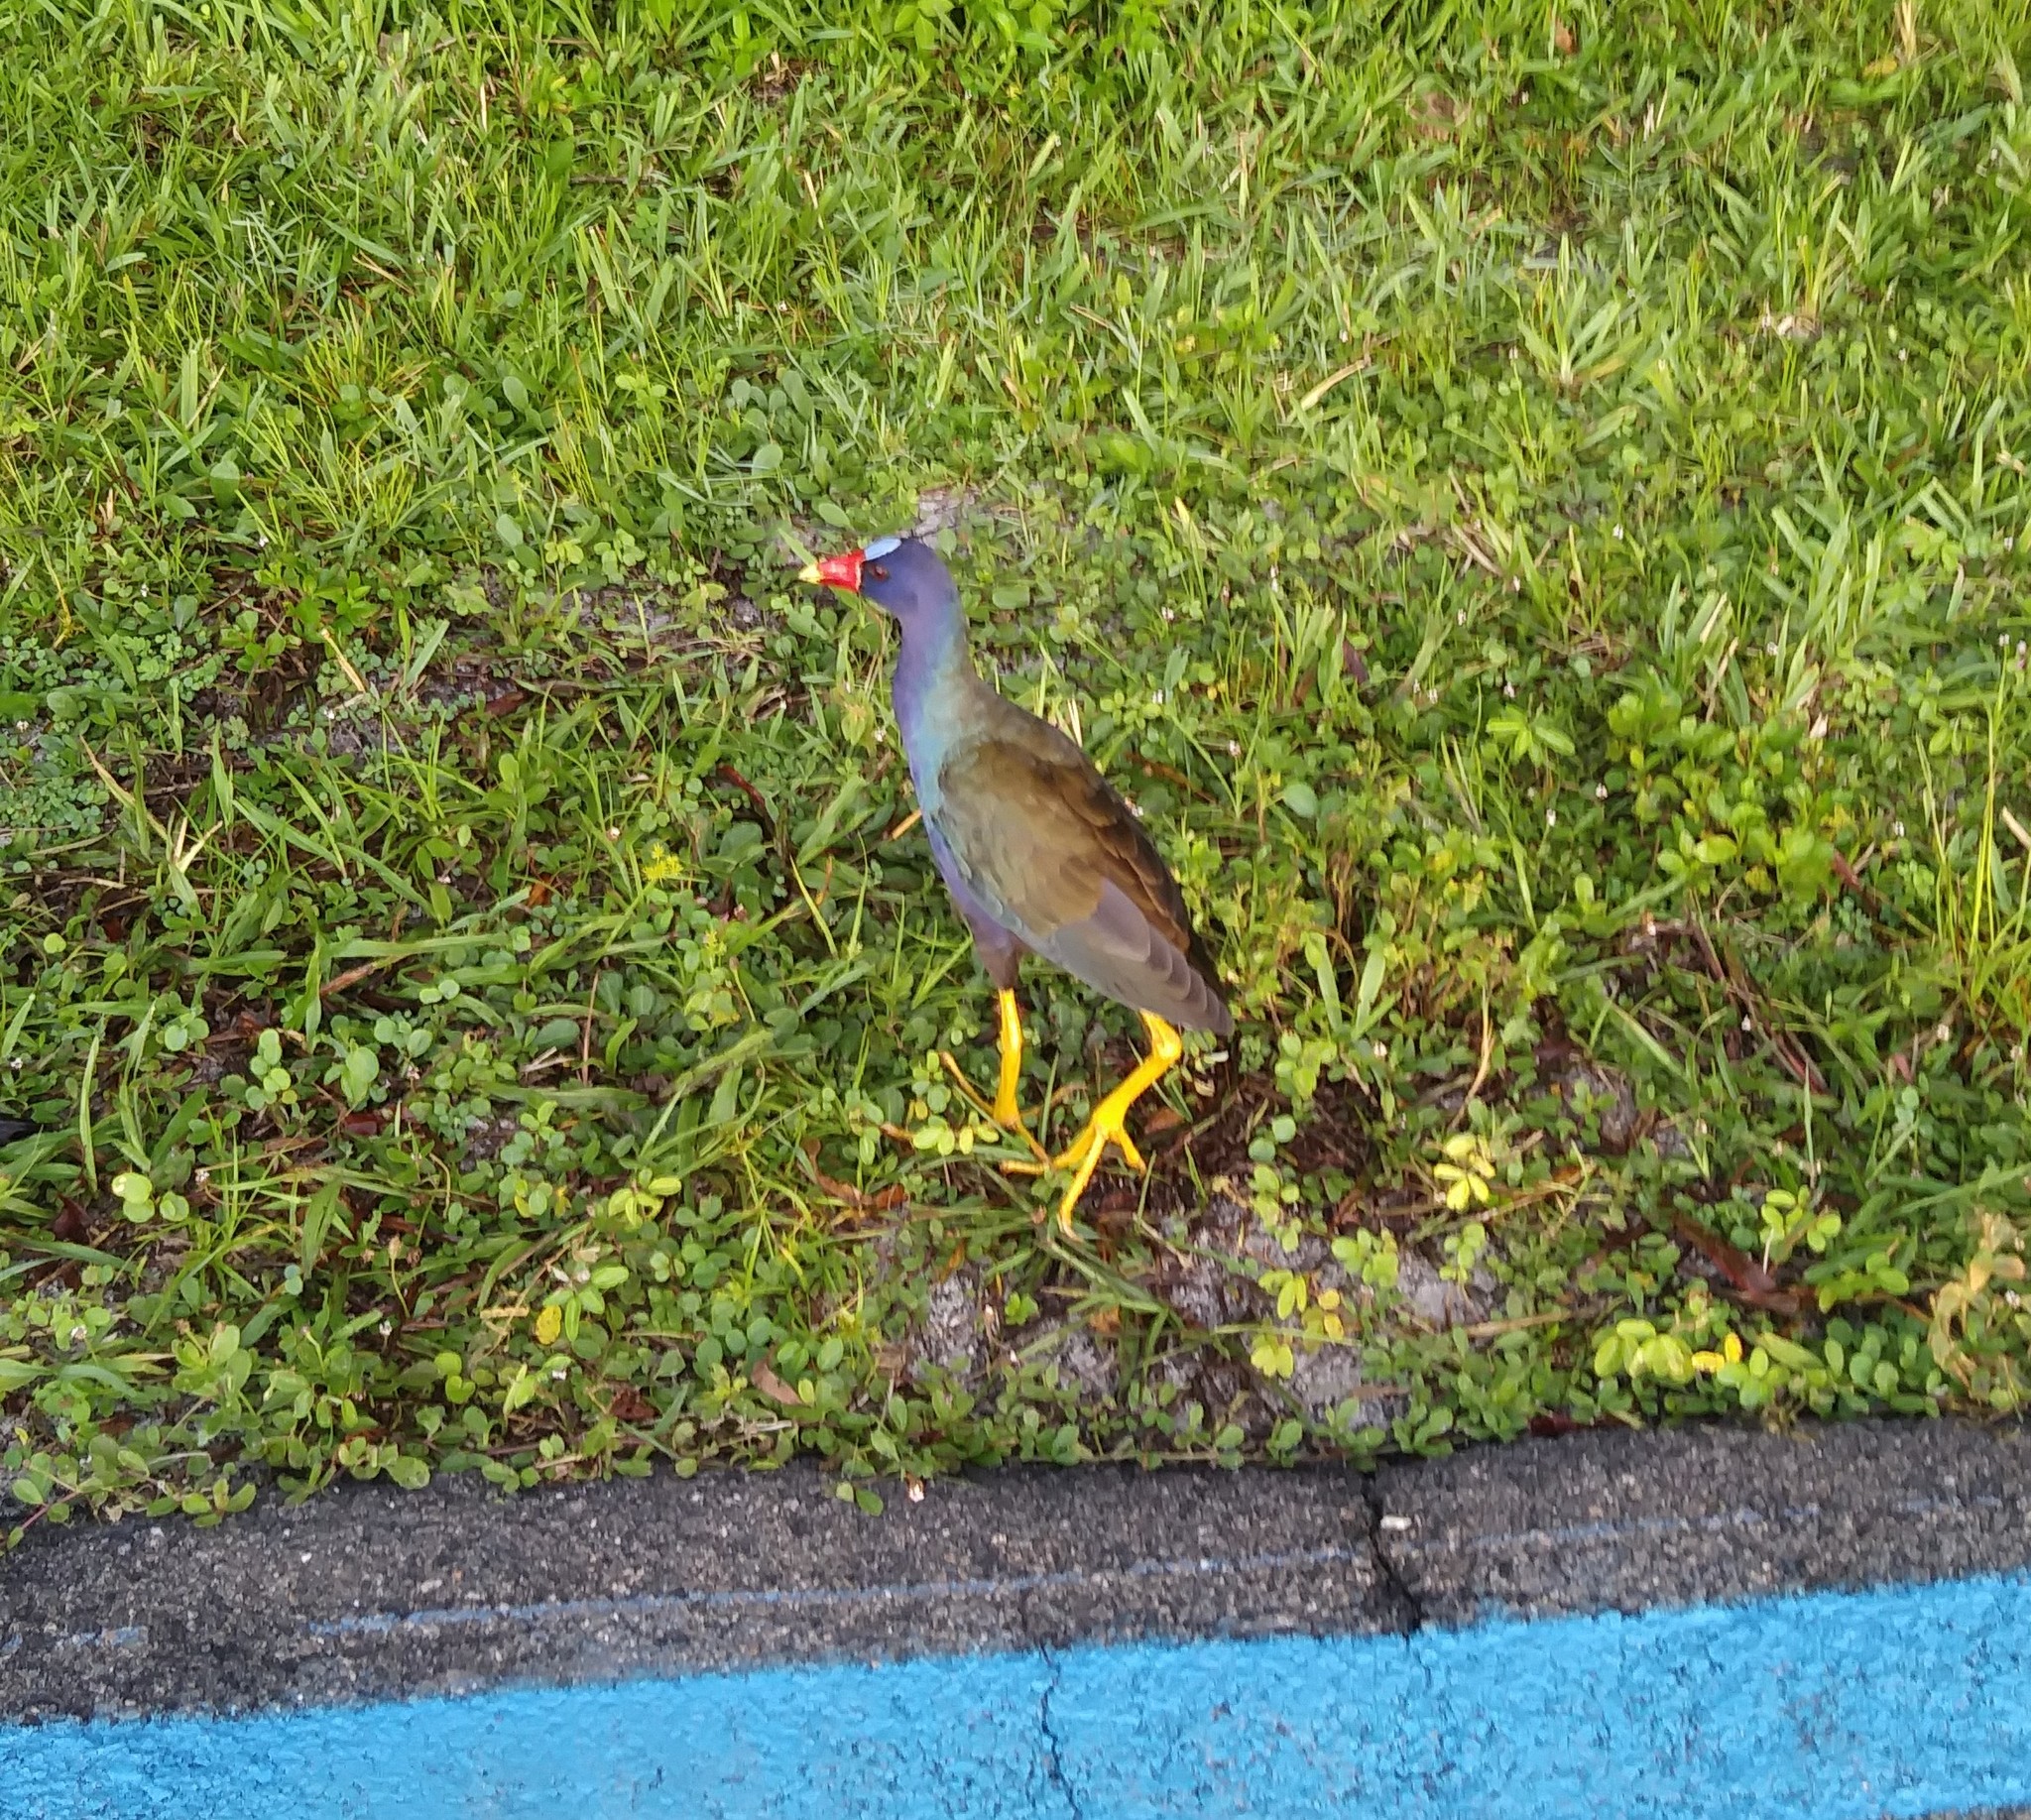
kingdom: Animalia
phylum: Chordata
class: Aves
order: Gruiformes
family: Rallidae
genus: Porphyrio
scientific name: Porphyrio martinica
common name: Purple gallinule
